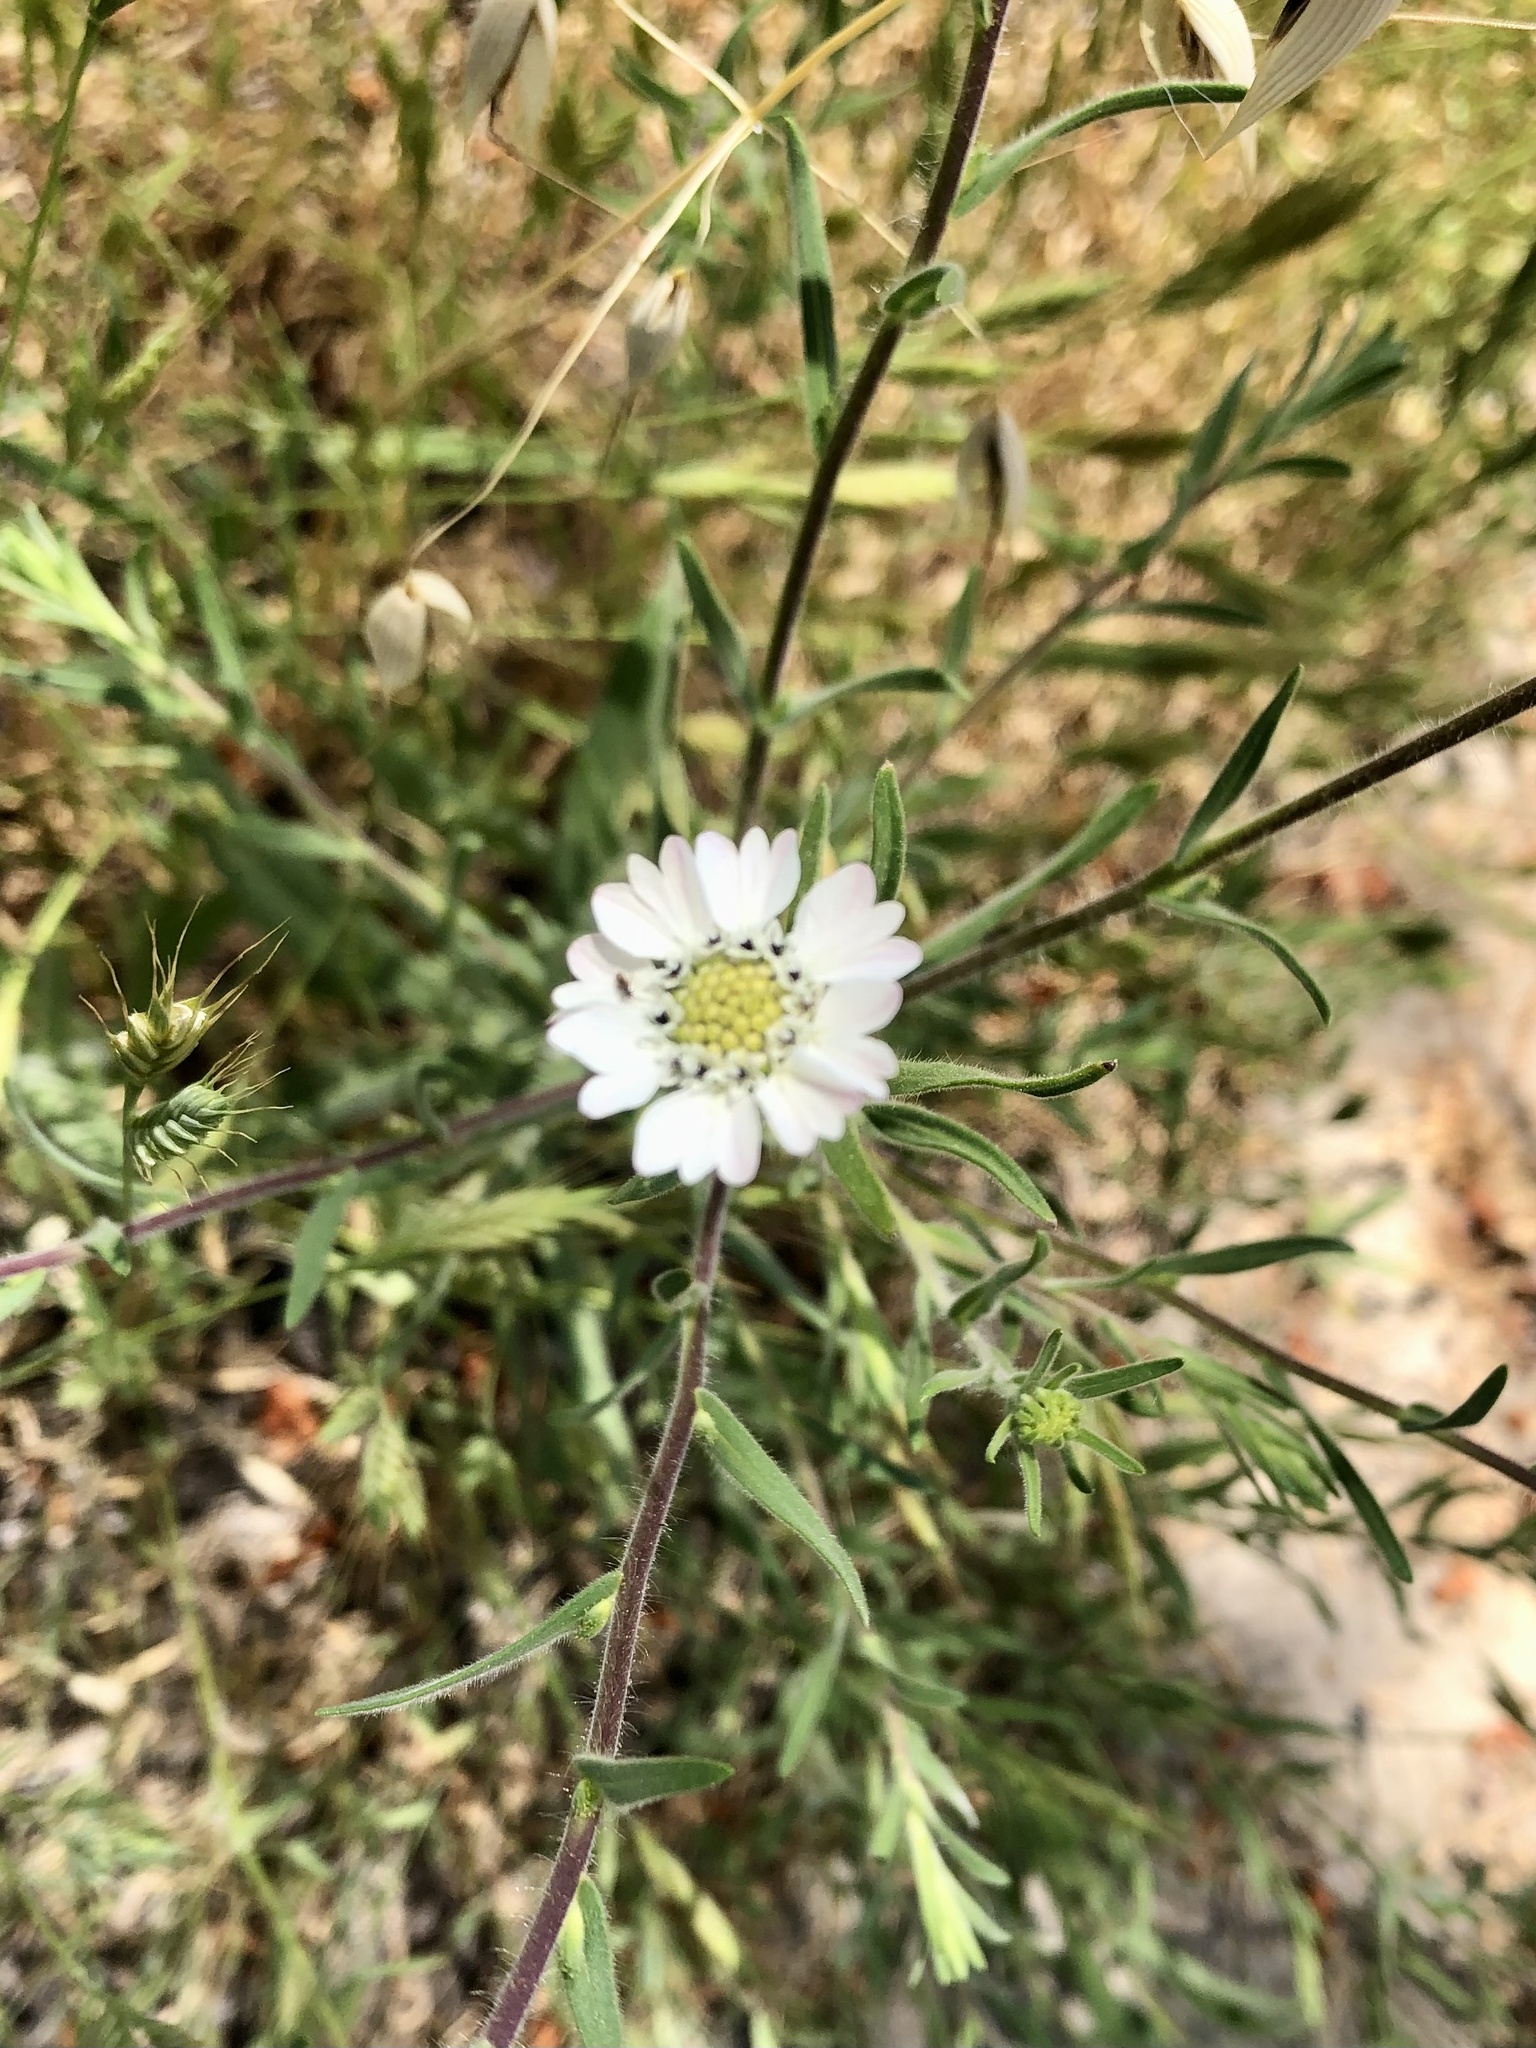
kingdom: Plantae
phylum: Tracheophyta
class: Magnoliopsida
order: Asterales
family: Asteraceae
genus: Hemizonia
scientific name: Hemizonia congesta
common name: Hayfield tarweed
